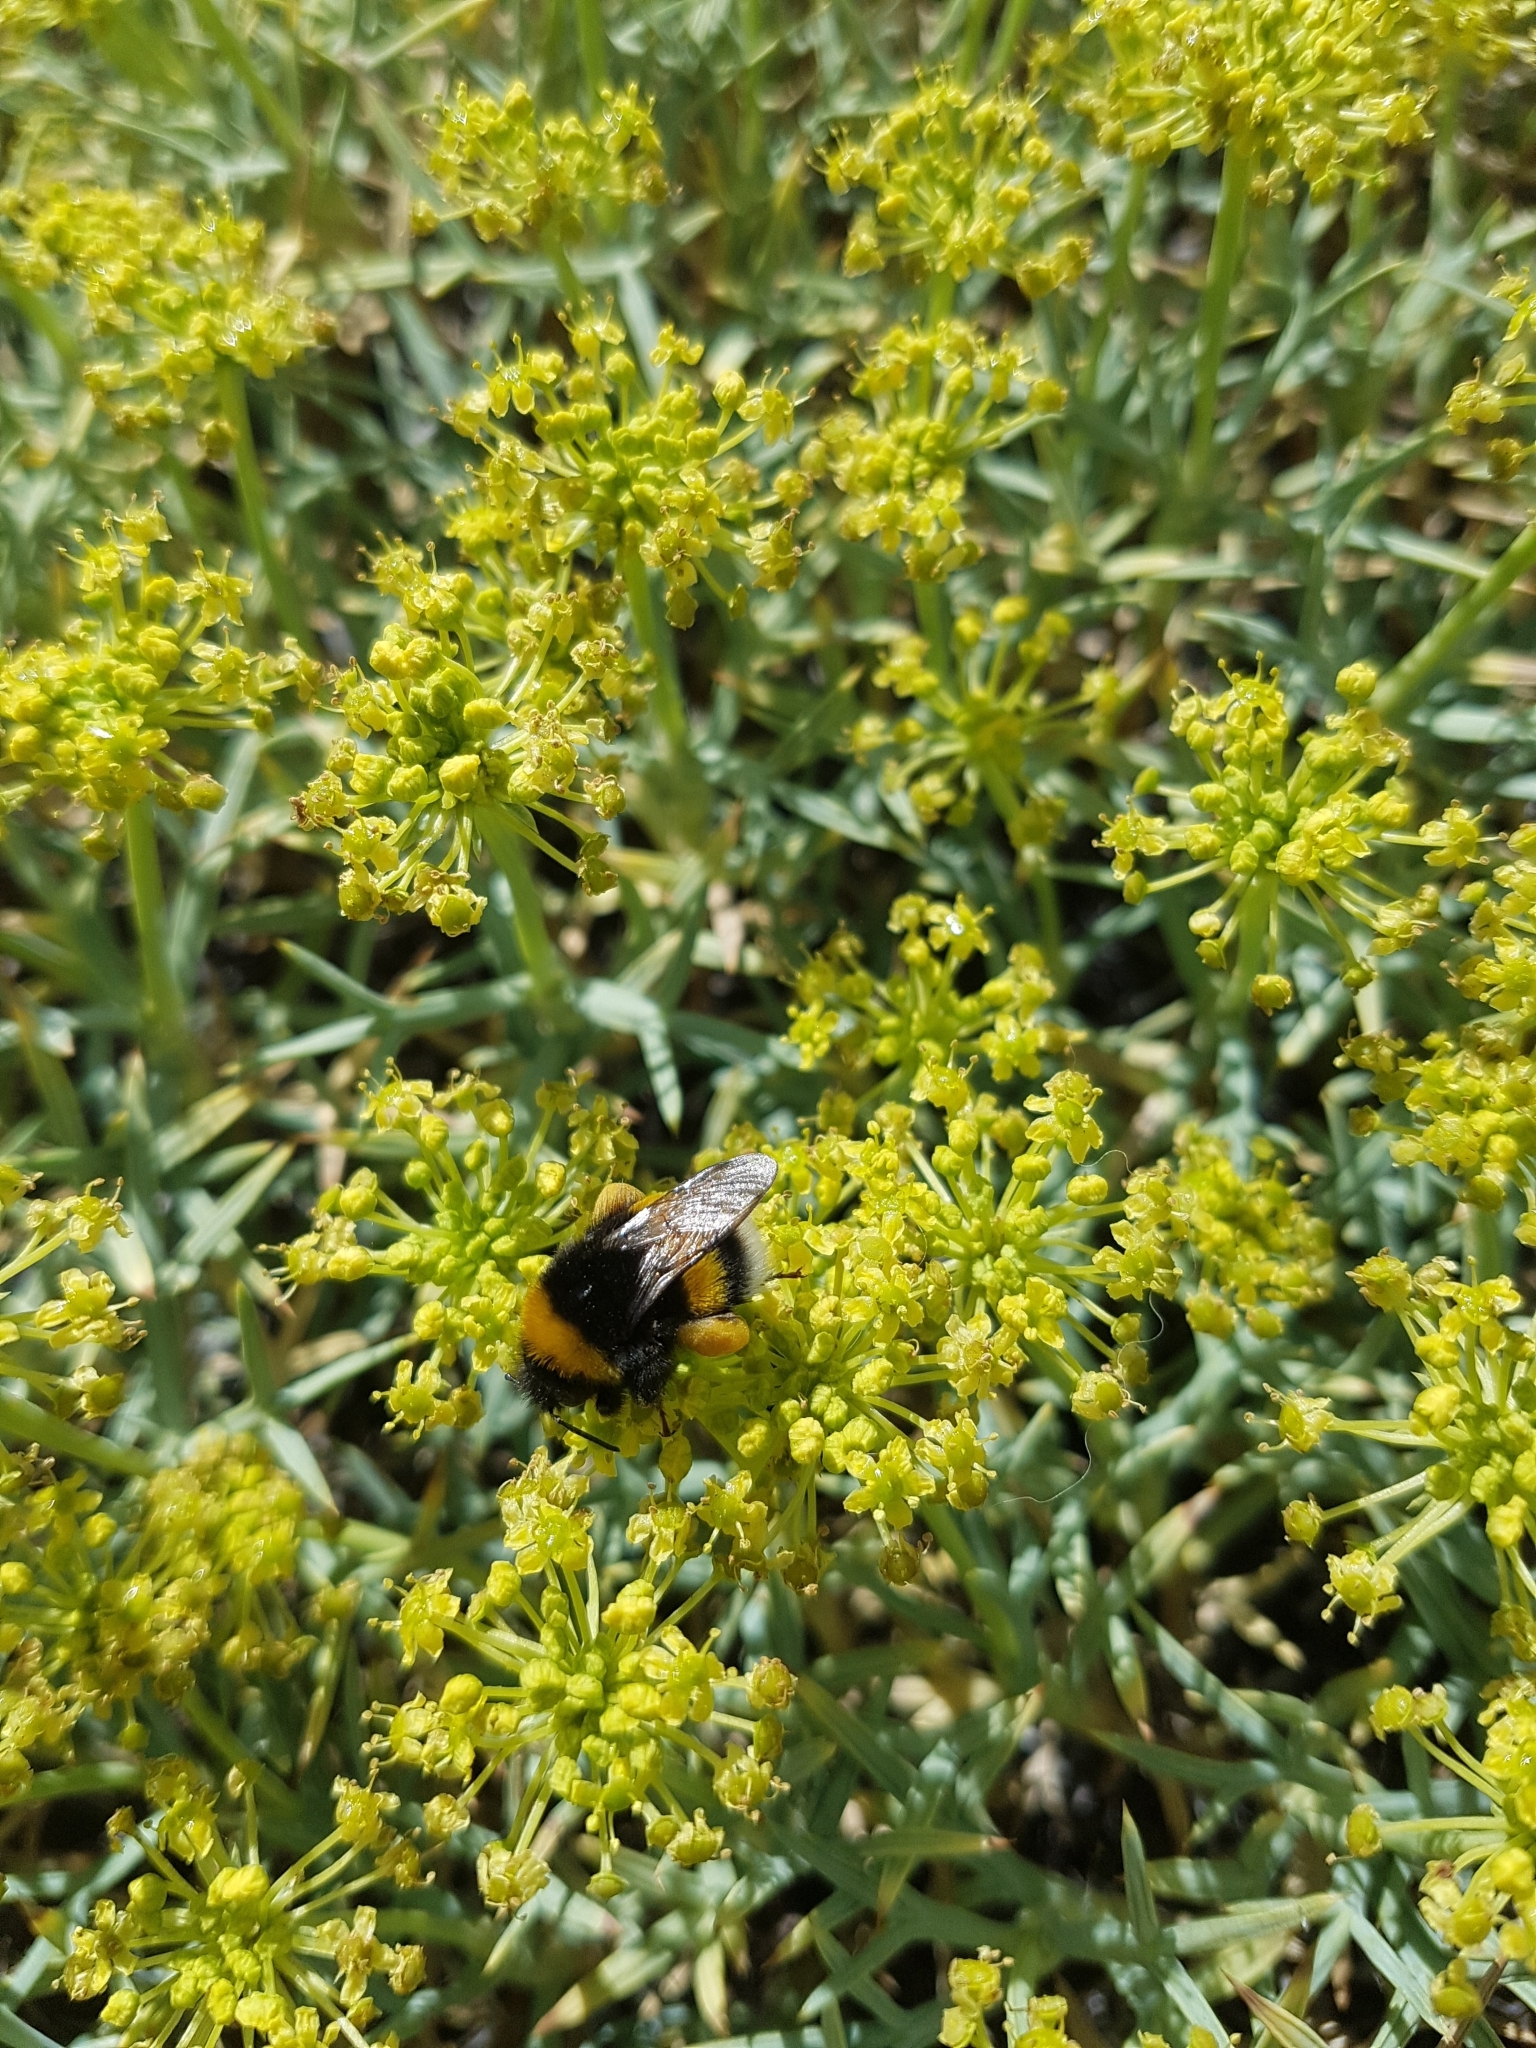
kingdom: Animalia
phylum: Arthropoda
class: Insecta
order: Hymenoptera
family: Apidae
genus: Bombus
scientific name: Bombus terrestris
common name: Buff-tailed bumblebee
